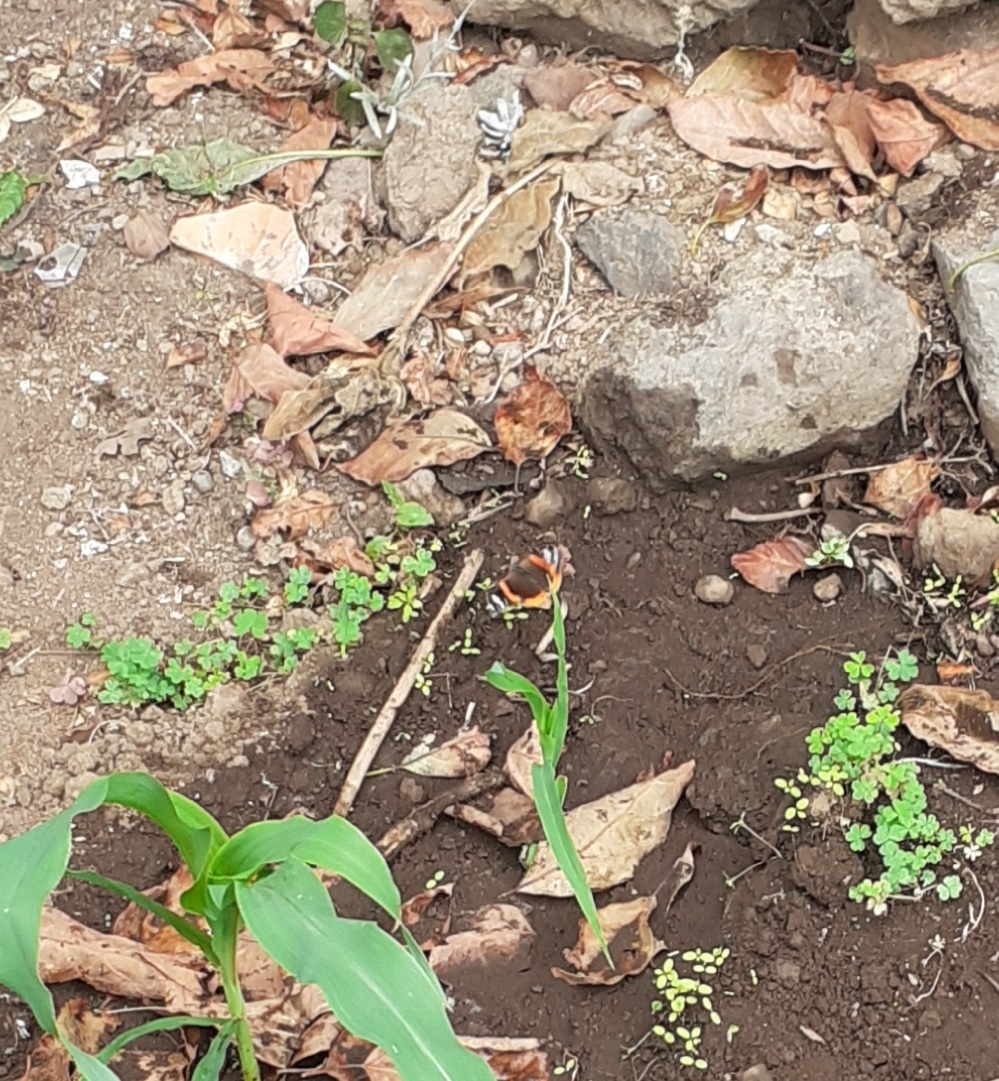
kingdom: Animalia
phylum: Arthropoda
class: Insecta
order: Lepidoptera
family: Nymphalidae
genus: Vanessa
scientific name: Vanessa atalanta
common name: Red admiral
